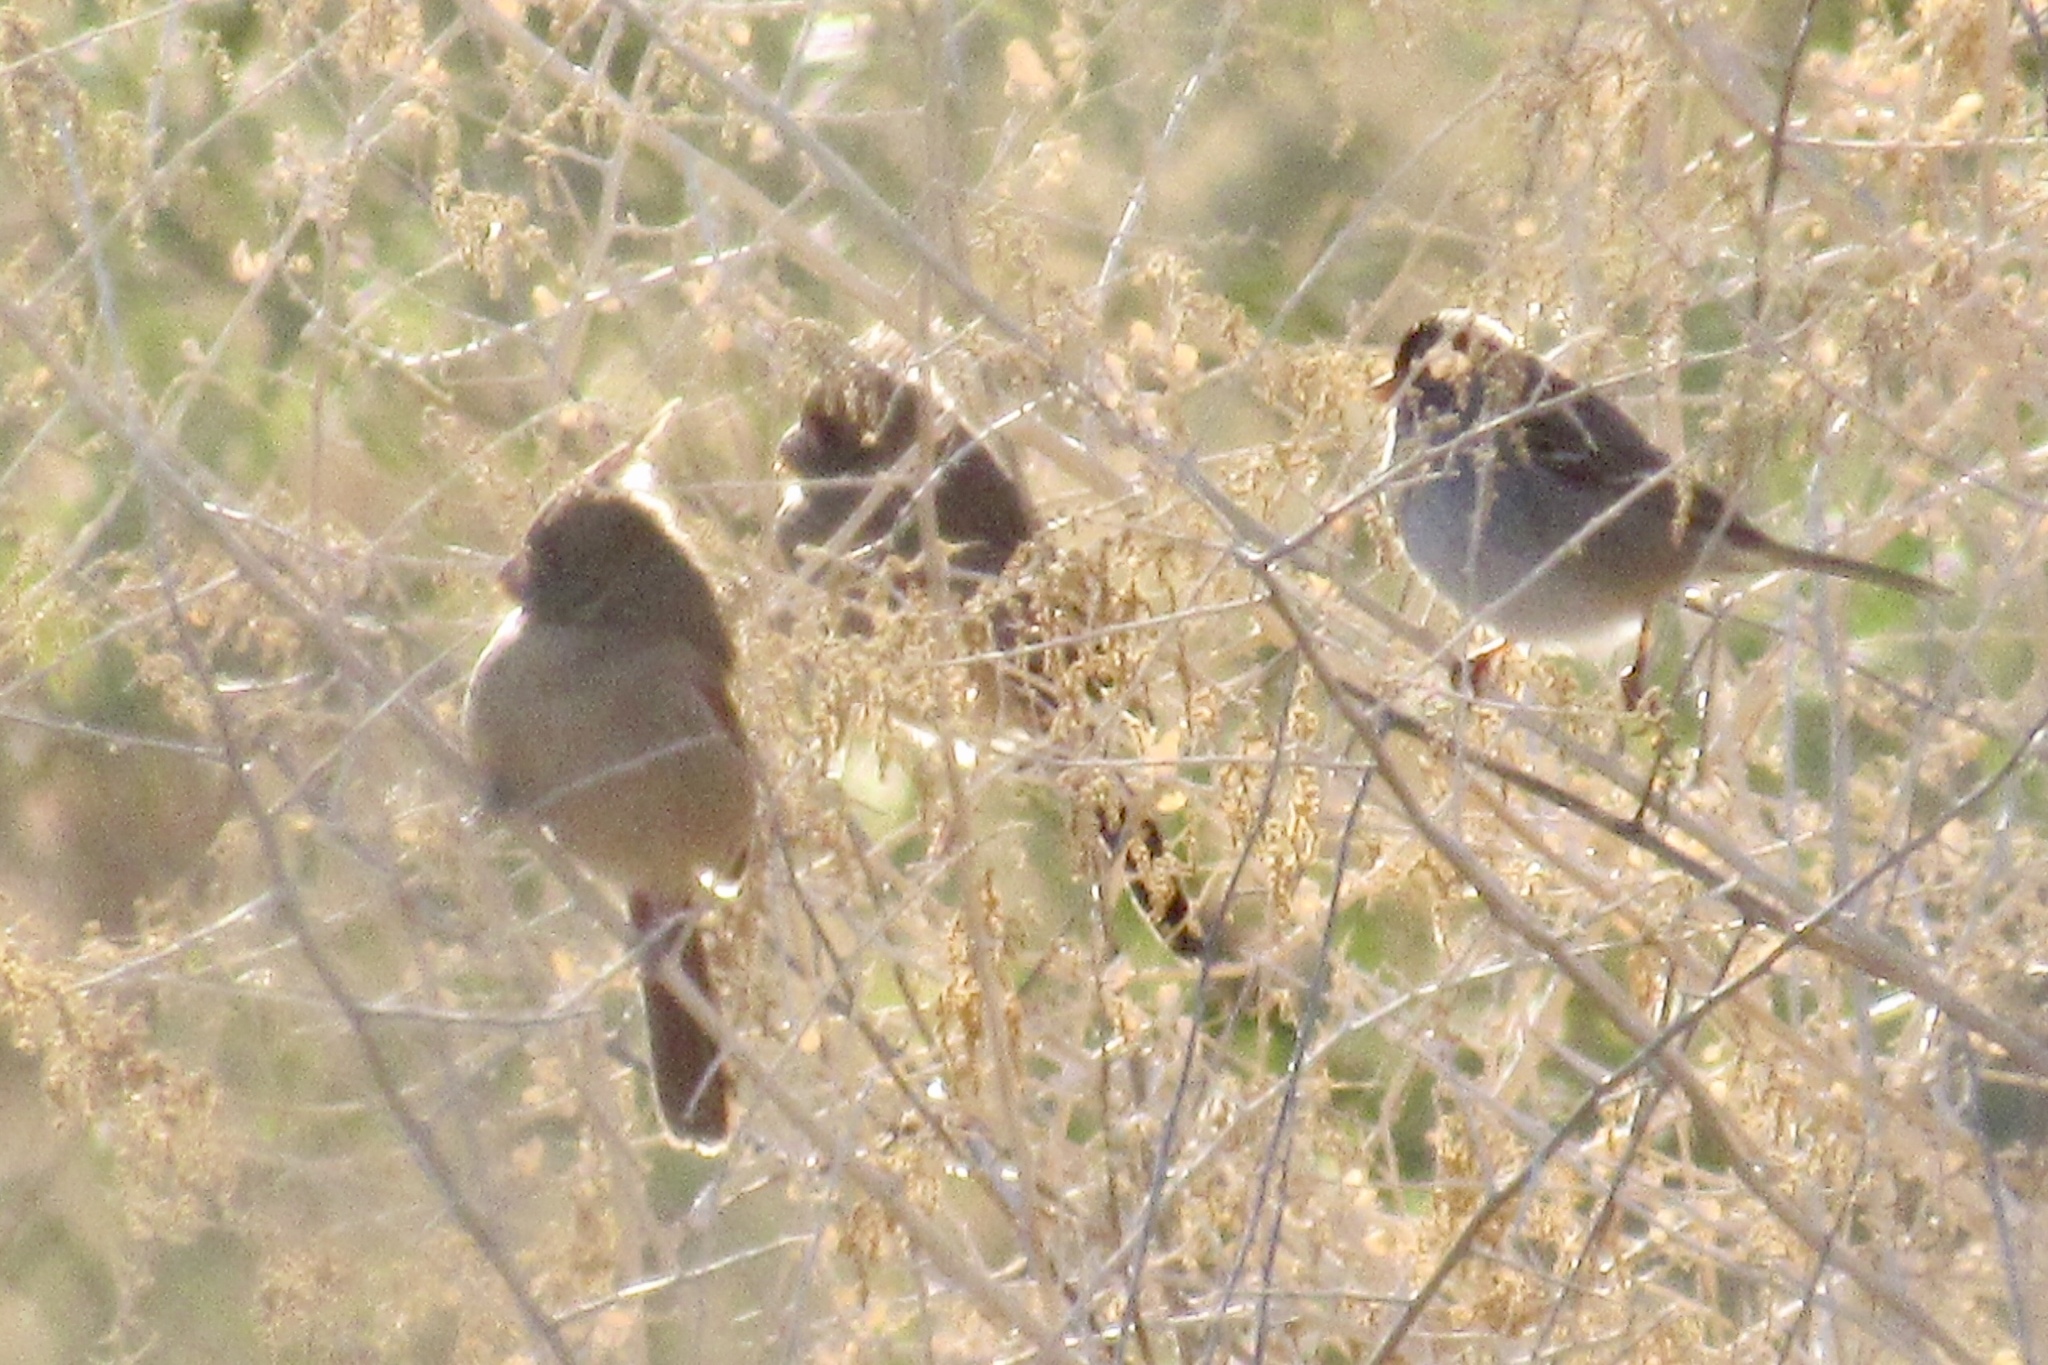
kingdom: Animalia
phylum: Chordata
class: Aves
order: Passeriformes
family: Cardinalidae
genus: Cardinalis
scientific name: Cardinalis sinuatus
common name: Pyrrhuloxia
